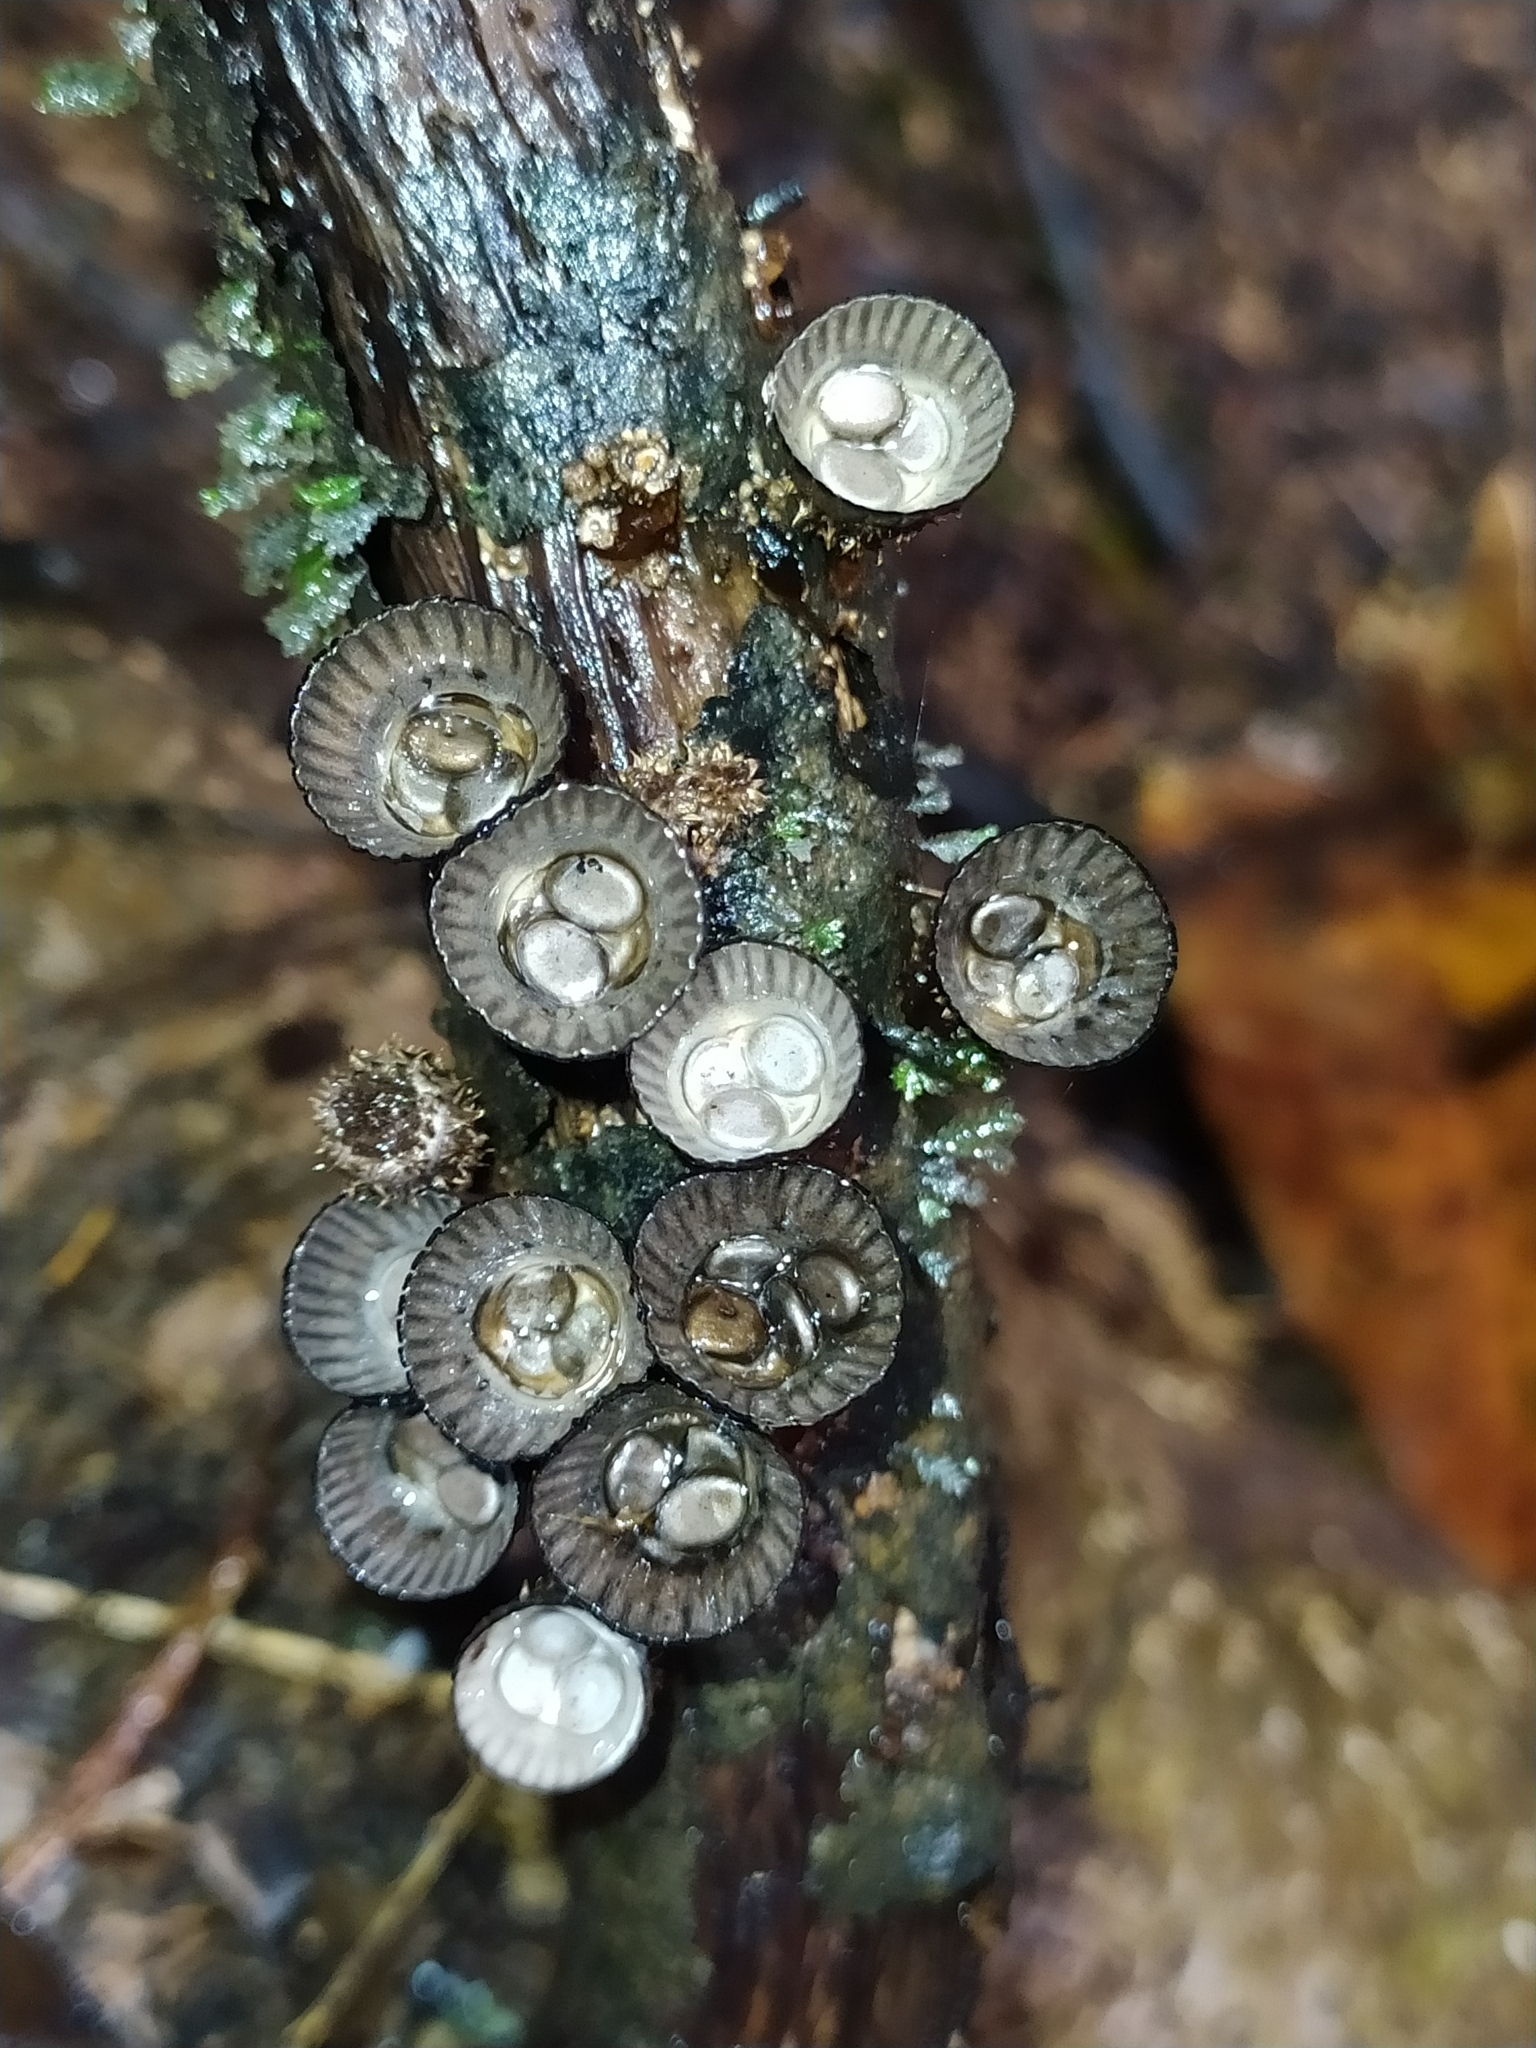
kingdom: Fungi
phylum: Basidiomycota
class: Agaricomycetes
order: Agaricales
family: Agaricaceae
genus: Cyathus
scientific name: Cyathus
